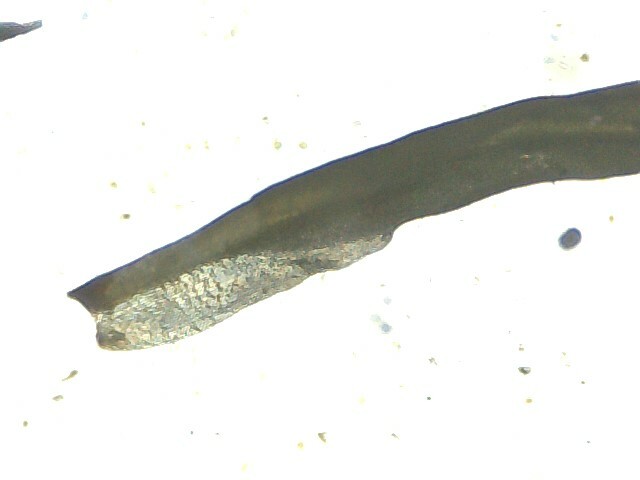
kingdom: Plantae
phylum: Bryophyta
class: Bryopsida
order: Pottiales
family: Pottiaceae
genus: Tortella
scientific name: Tortella densa
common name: Clint crisp-moss
